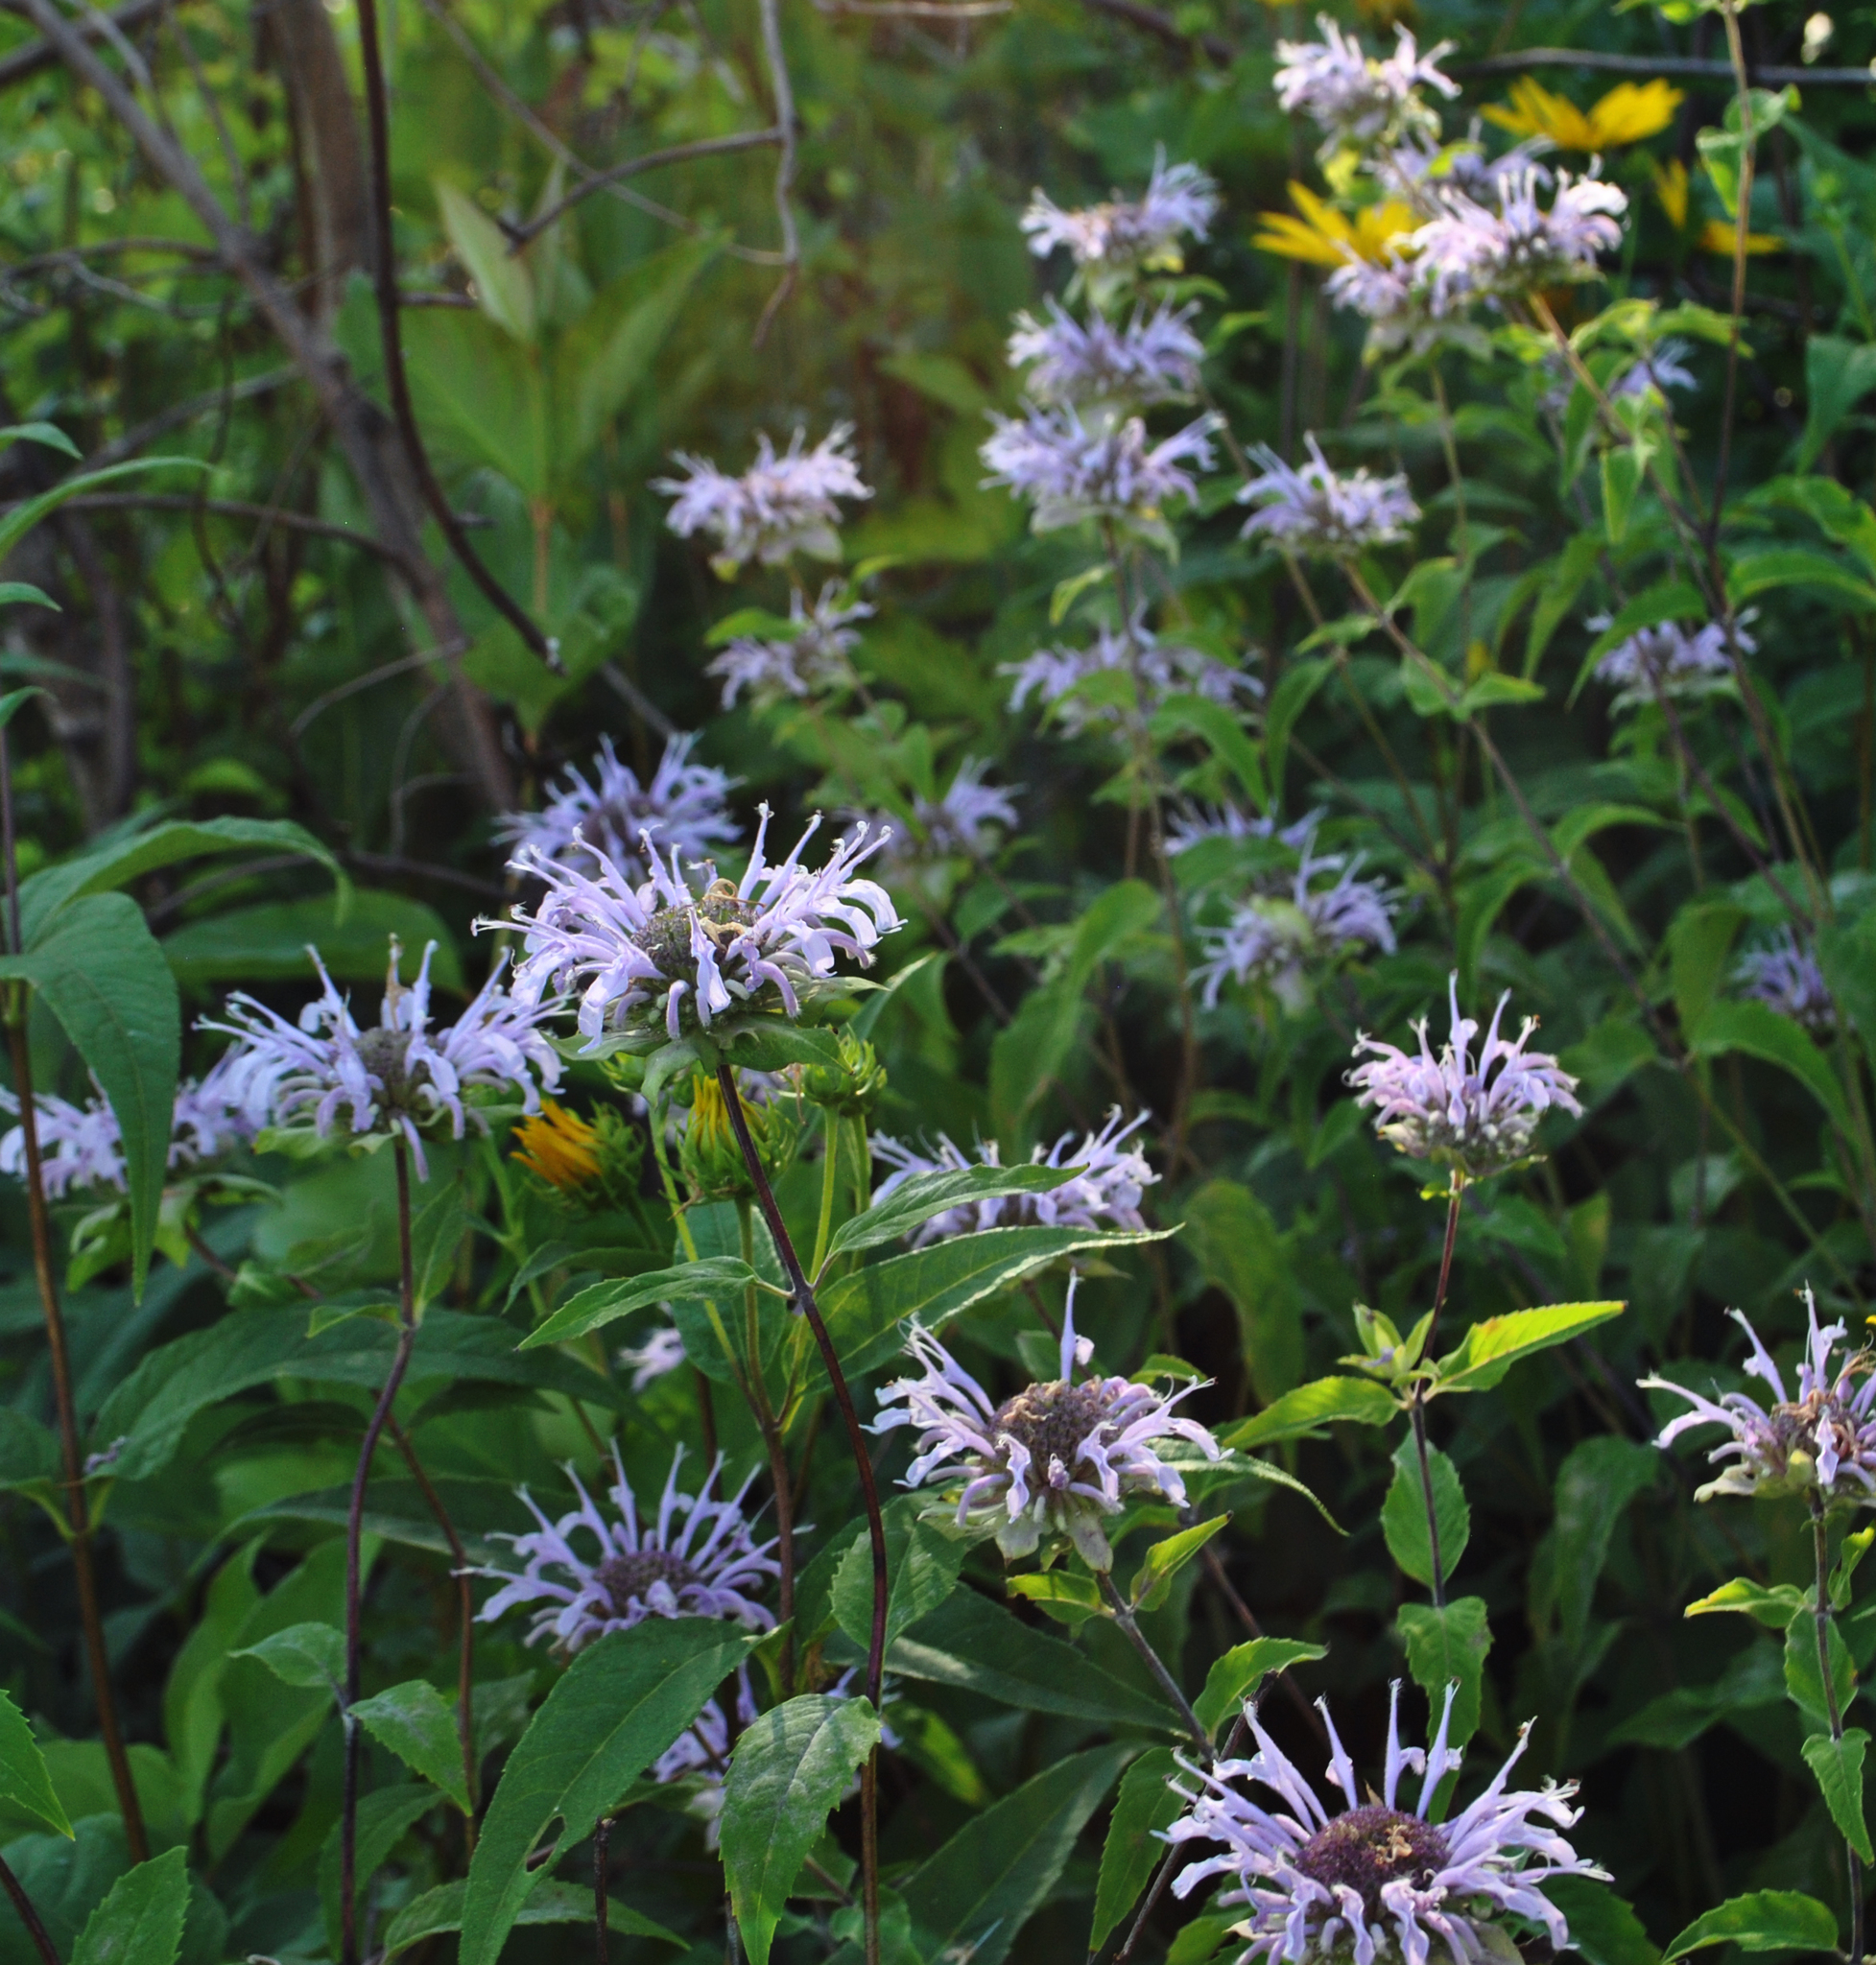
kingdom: Plantae
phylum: Tracheophyta
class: Magnoliopsida
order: Lamiales
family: Lamiaceae
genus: Monarda
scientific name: Monarda fistulosa
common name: Purple beebalm
